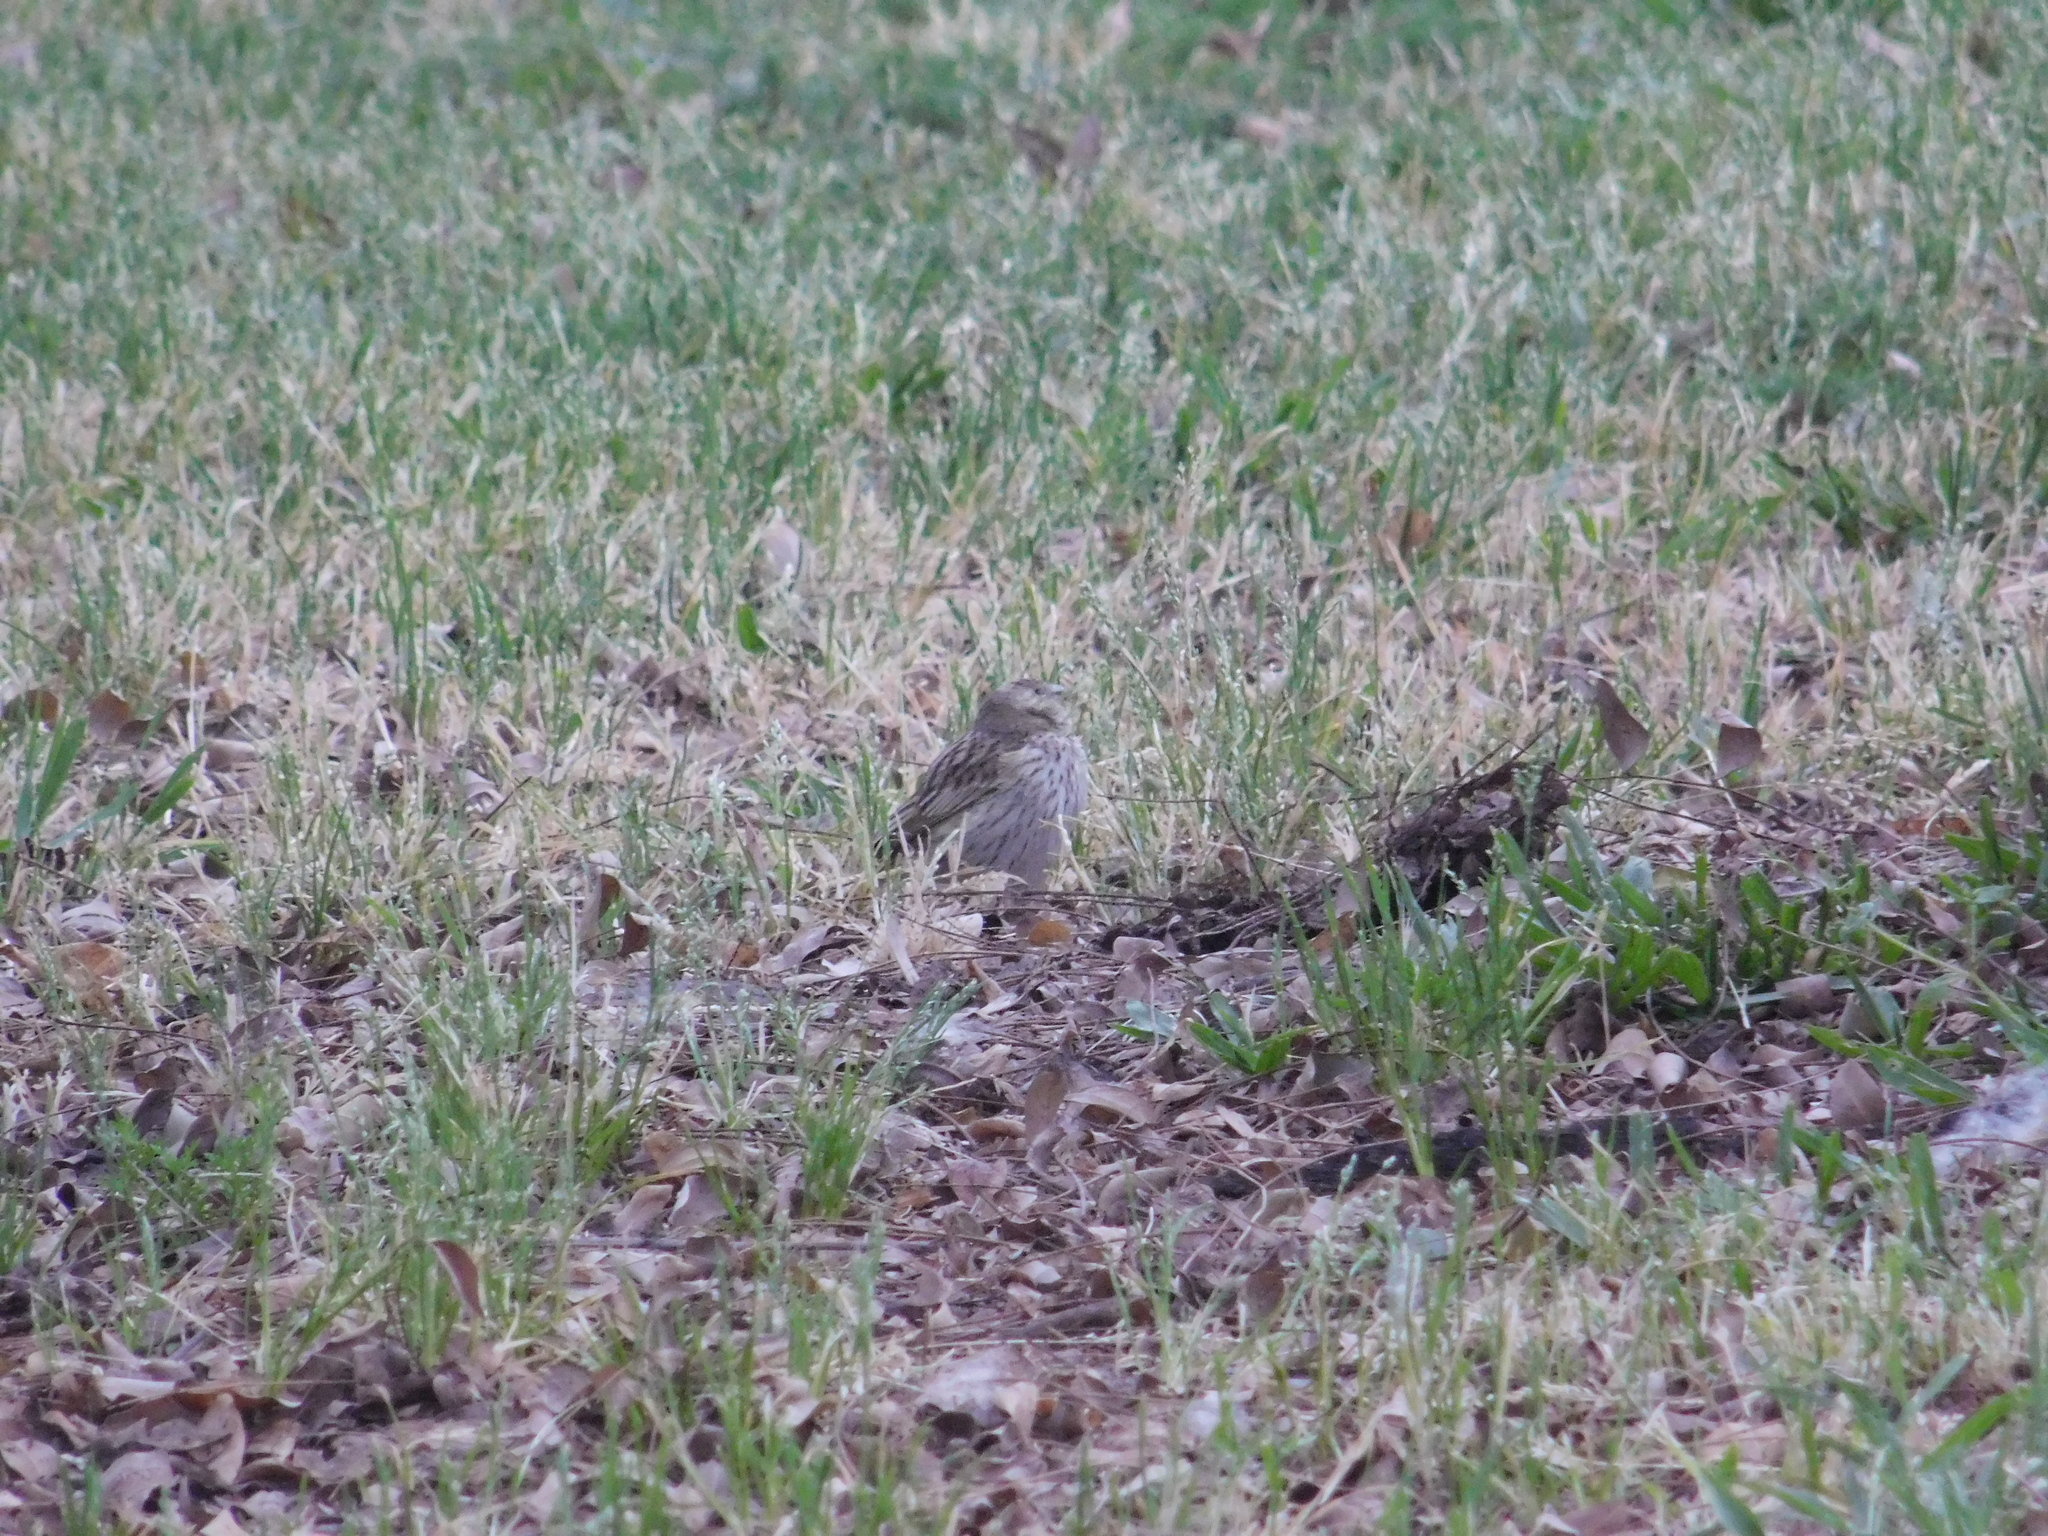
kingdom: Animalia
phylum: Chordata
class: Aves
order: Passeriformes
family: Thraupidae
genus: Sicalis
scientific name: Sicalis flaveola
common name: Saffron finch
